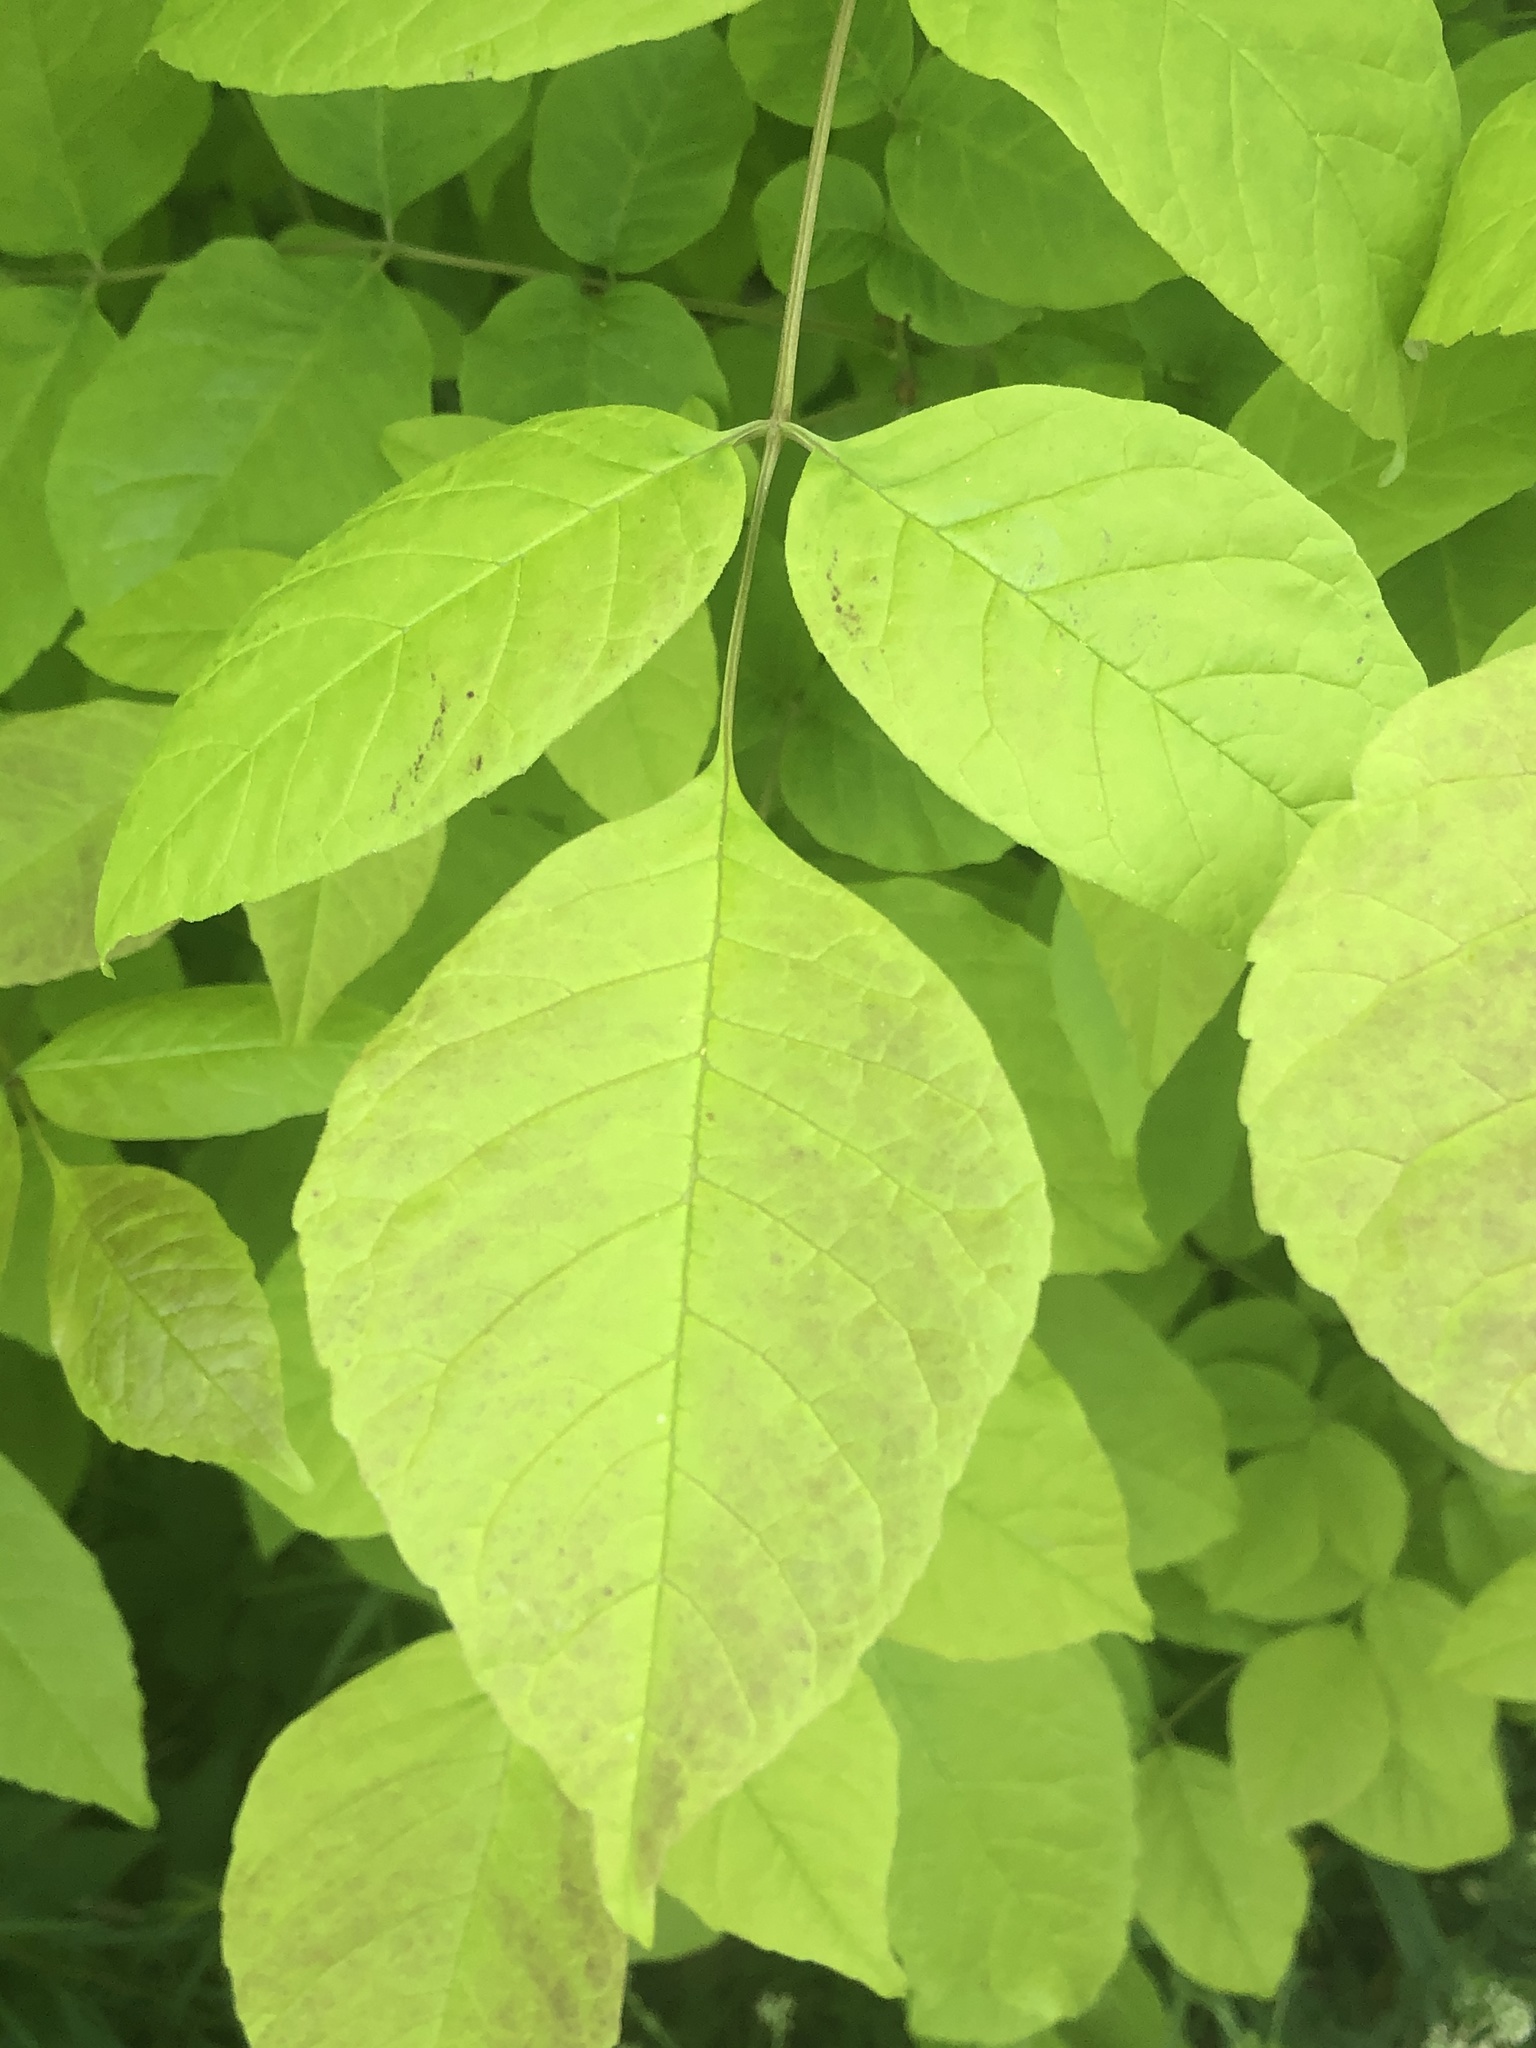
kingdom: Plantae
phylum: Tracheophyta
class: Magnoliopsida
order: Lamiales
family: Oleaceae
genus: Fraxinus
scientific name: Fraxinus americana
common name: White ash
